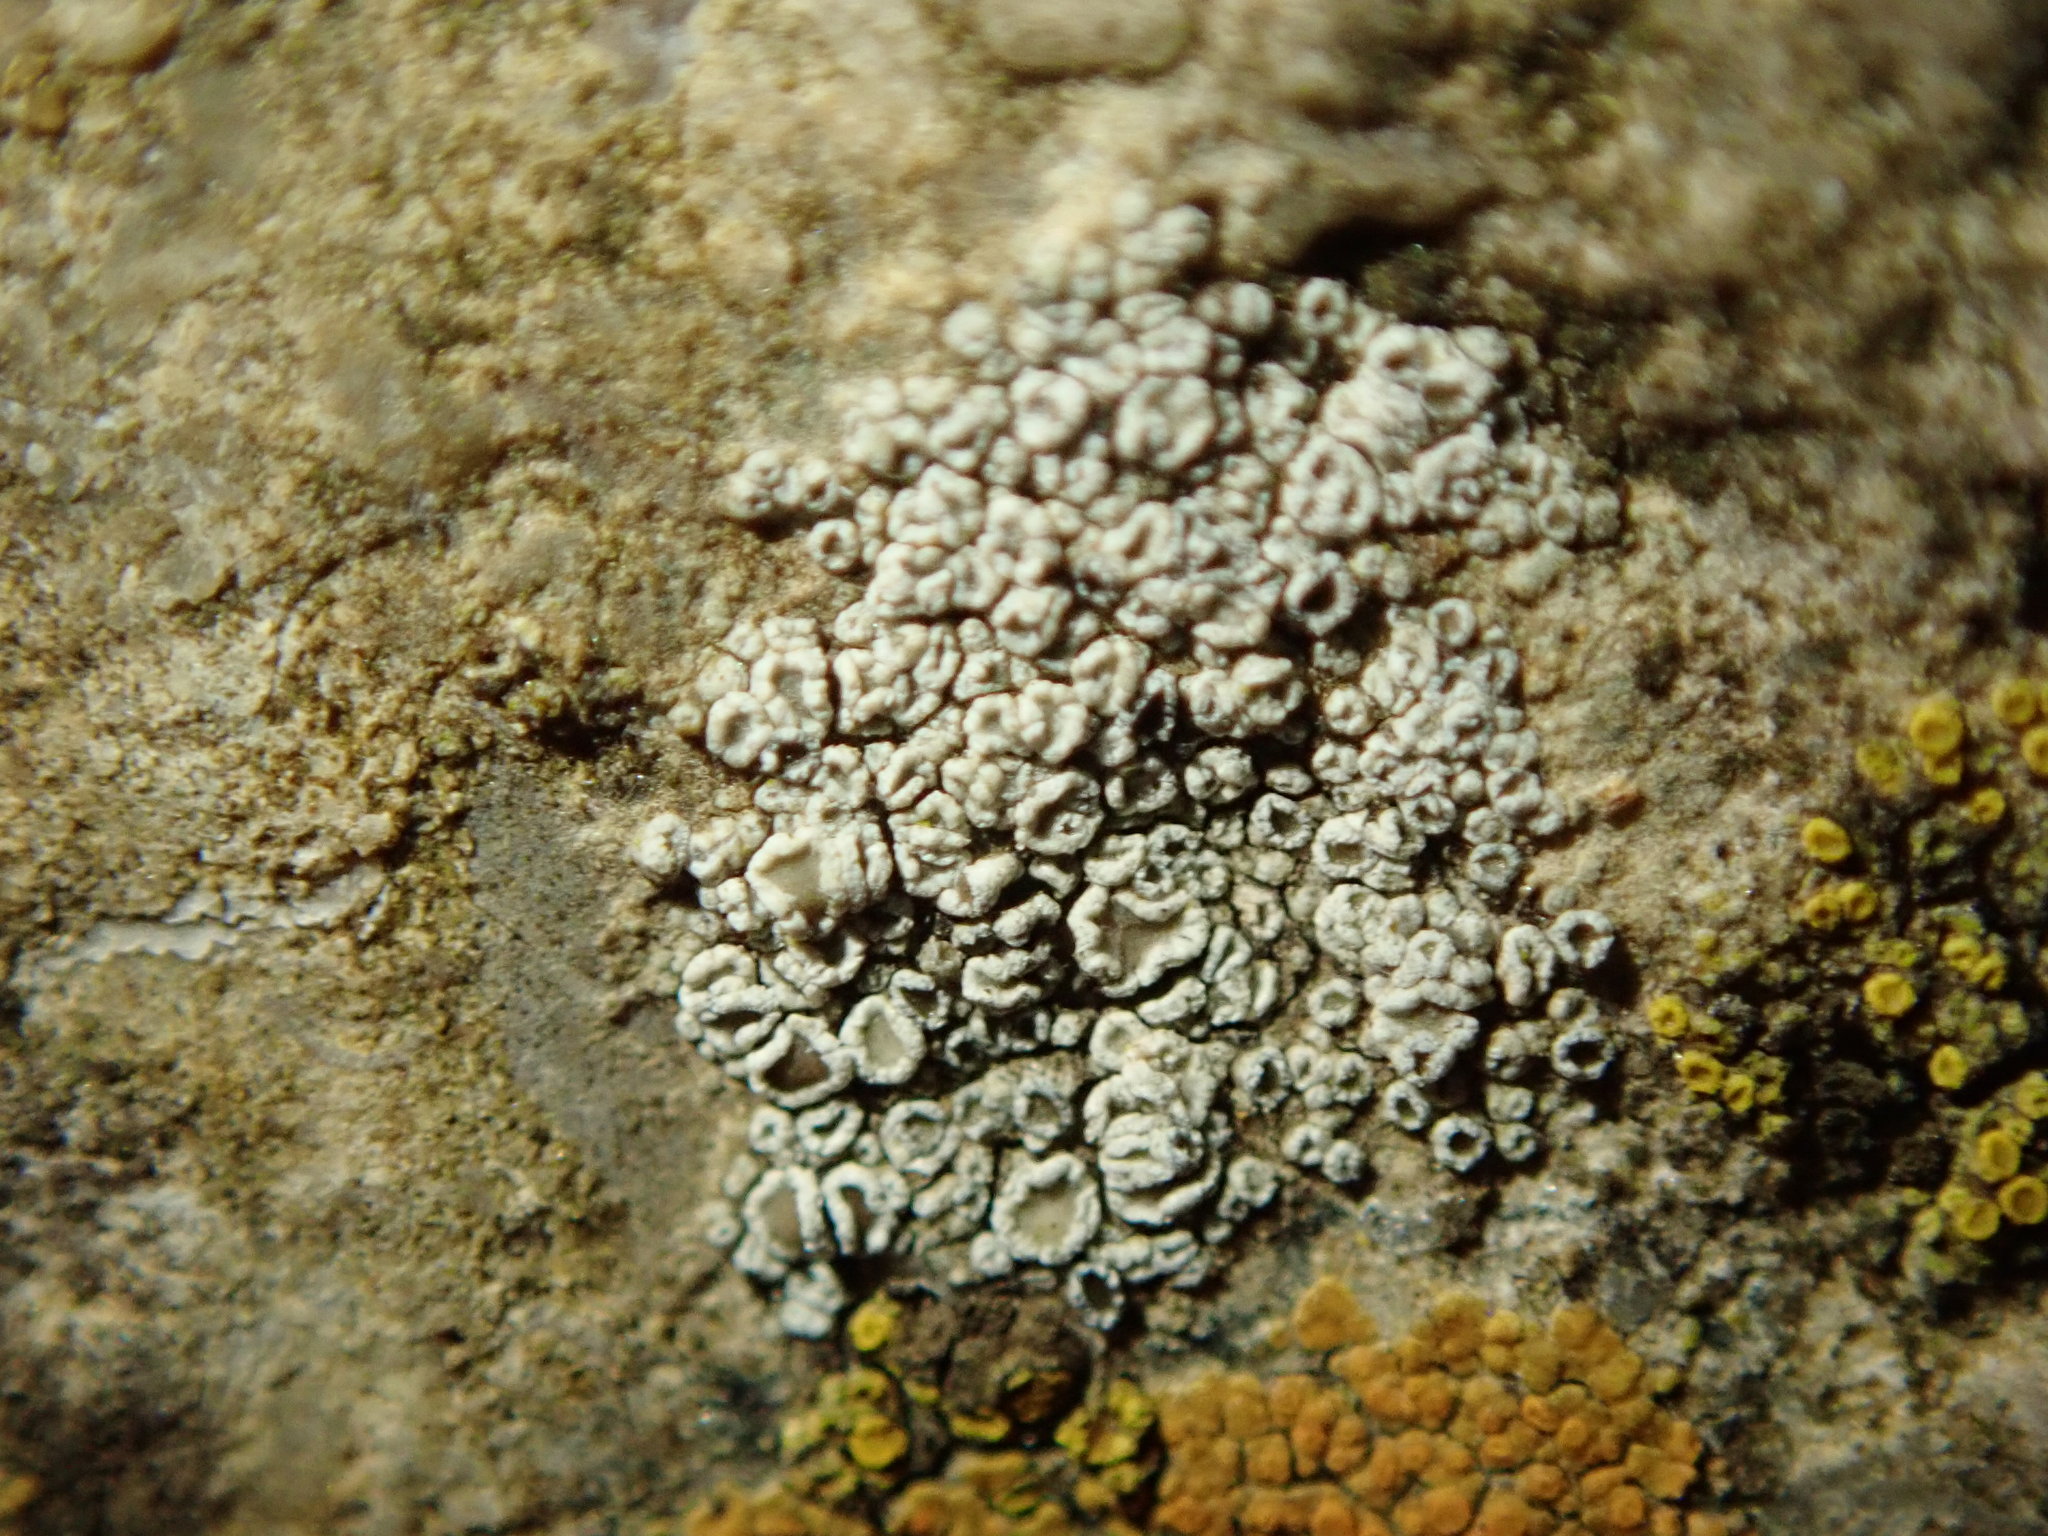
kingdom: Fungi
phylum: Ascomycota
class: Lecanoromycetes
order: Lecanorales
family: Lecanoraceae
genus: Polyozosia
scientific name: Polyozosia dispersa
